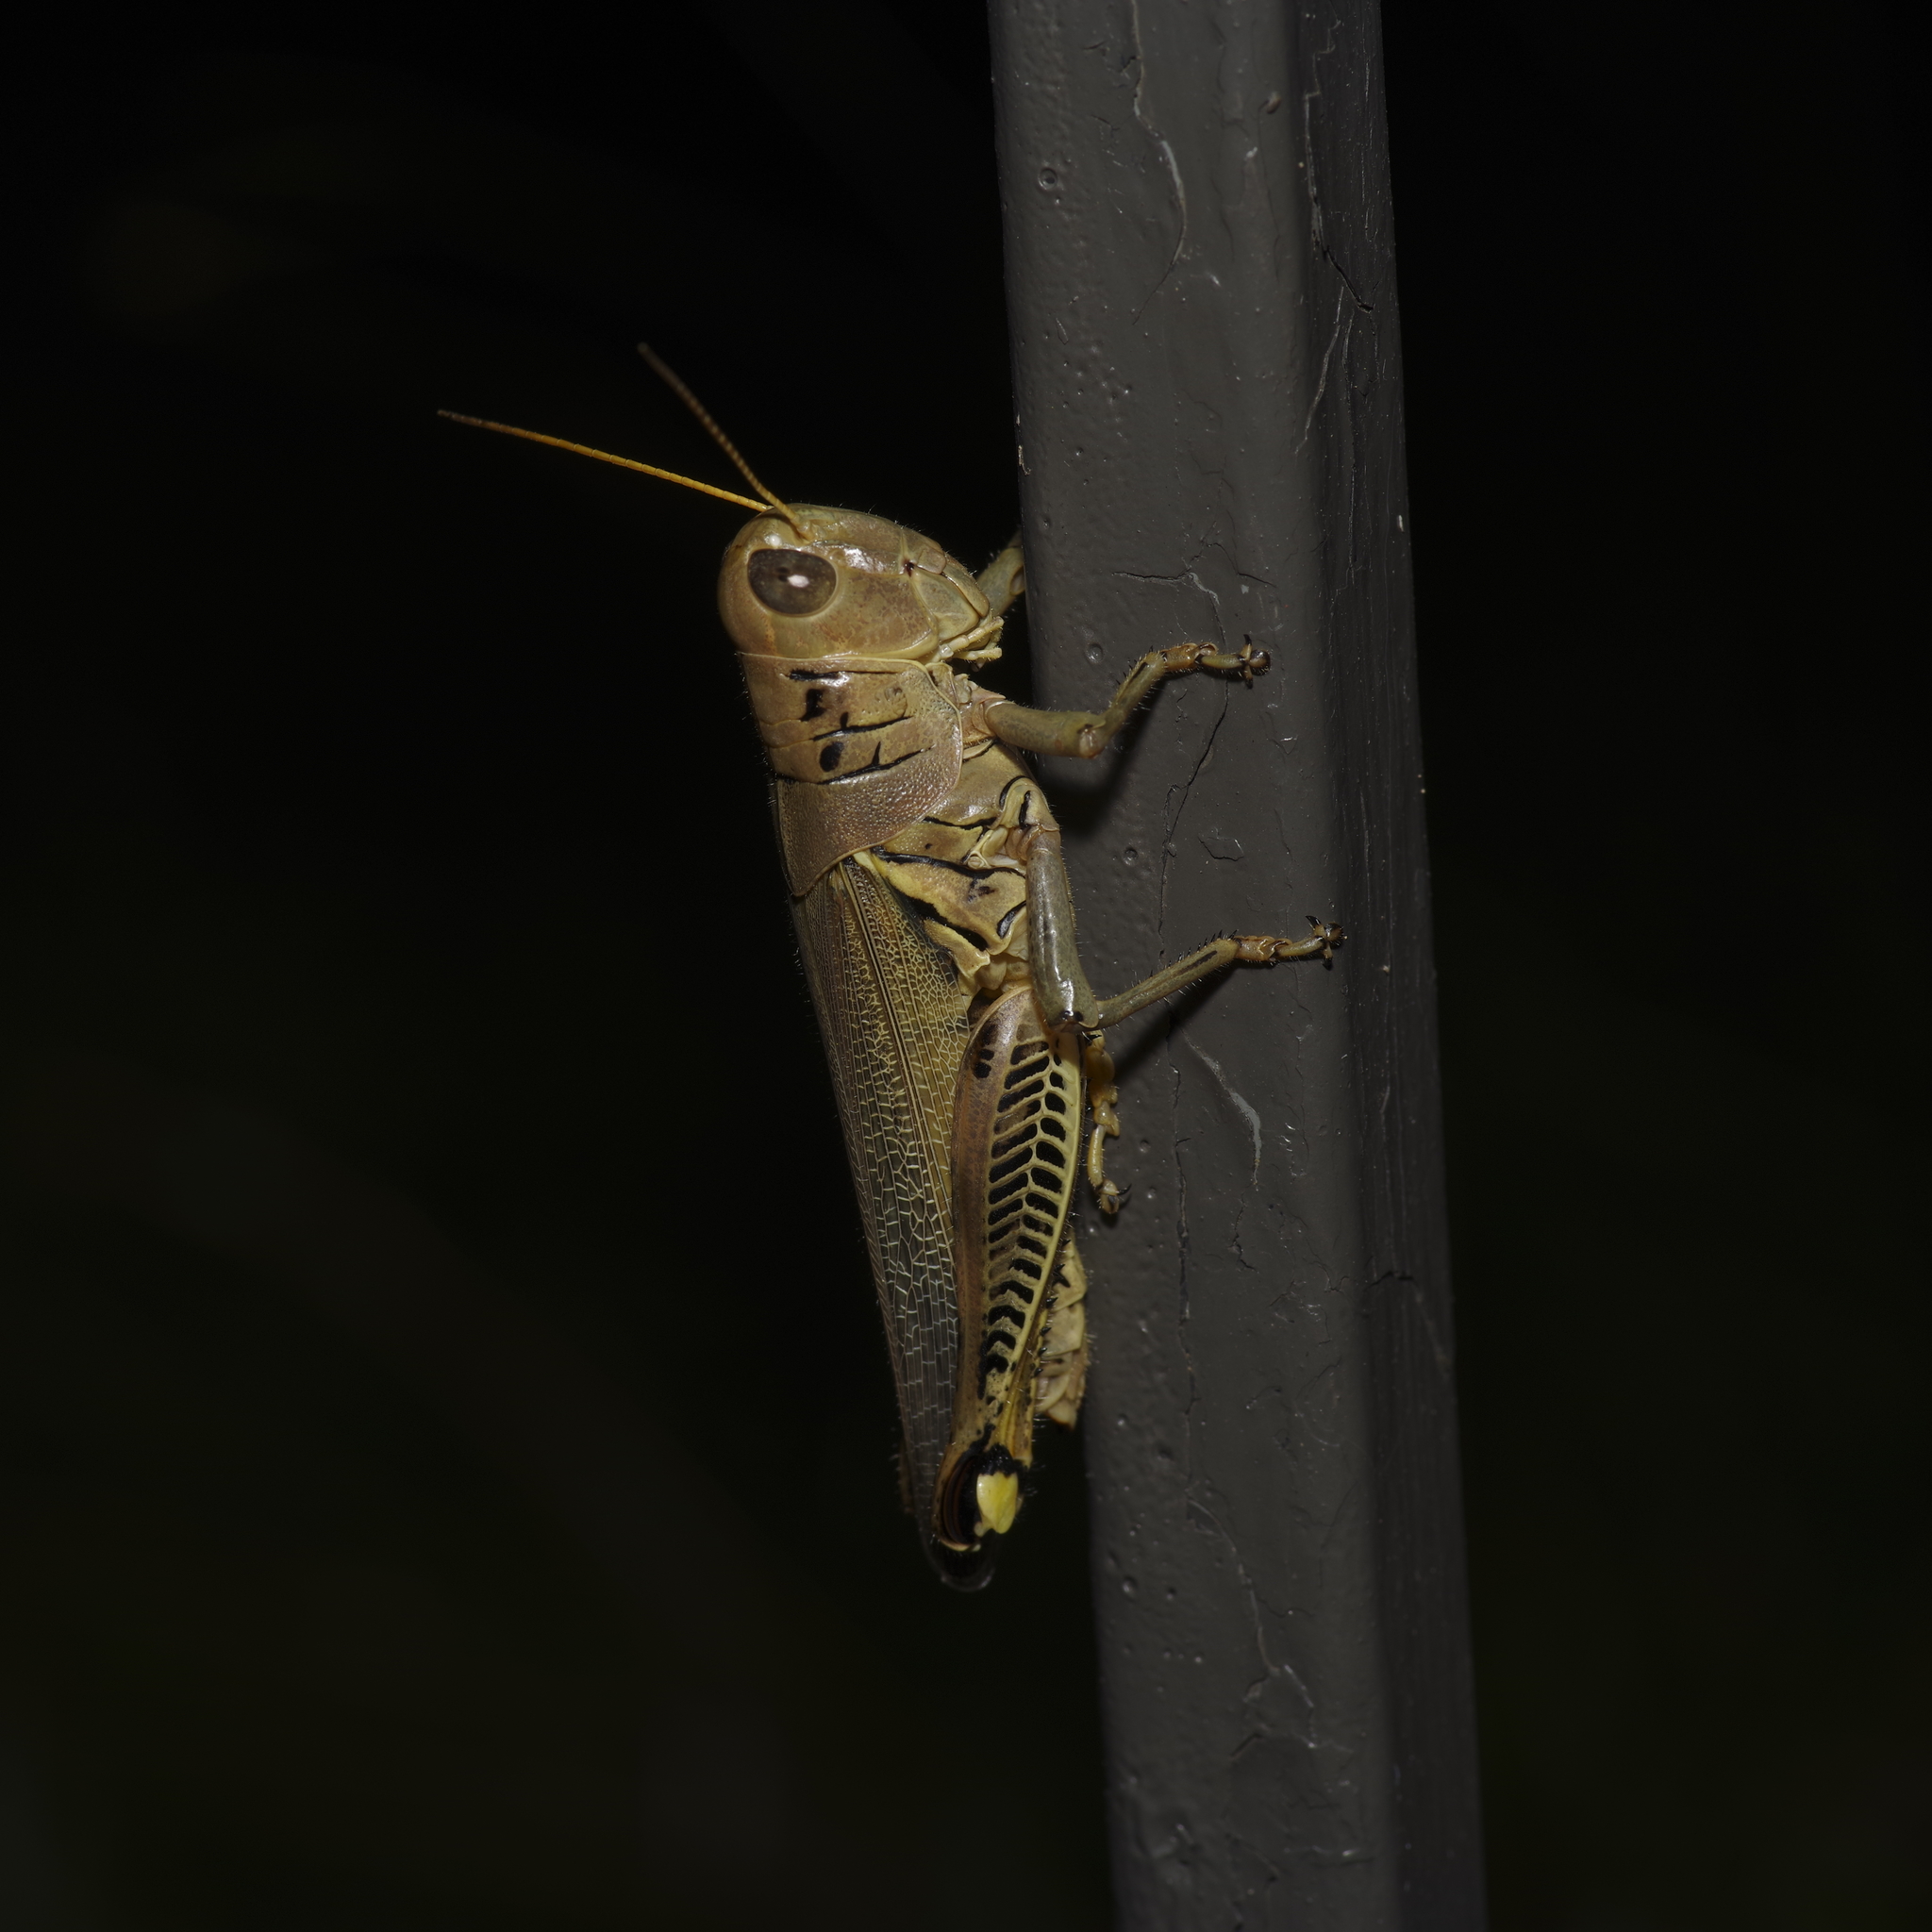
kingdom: Animalia
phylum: Arthropoda
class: Insecta
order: Orthoptera
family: Acrididae
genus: Melanoplus
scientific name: Melanoplus differentialis
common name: Differential grasshopper
